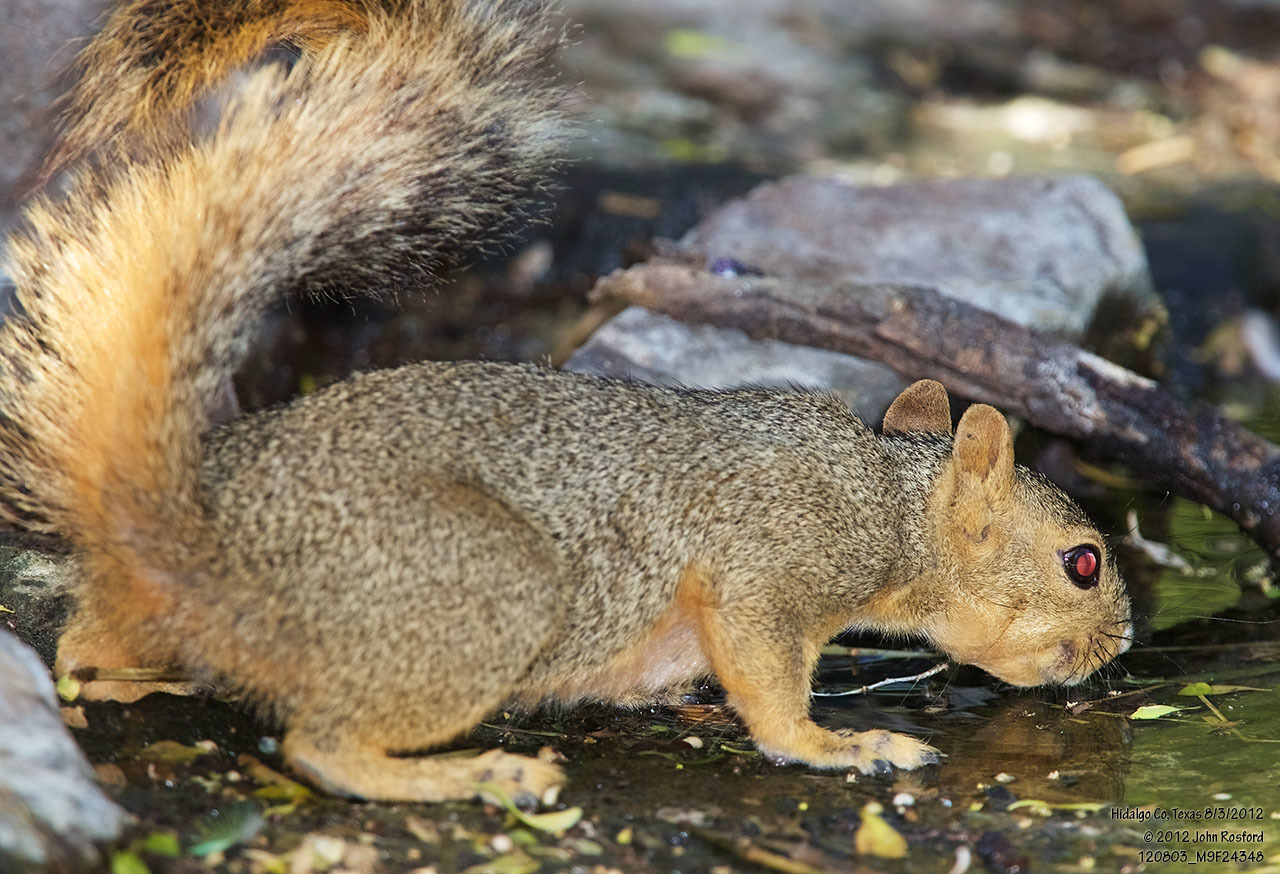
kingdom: Animalia
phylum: Chordata
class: Mammalia
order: Rodentia
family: Sciuridae
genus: Sciurus
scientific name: Sciurus niger
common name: Fox squirrel
